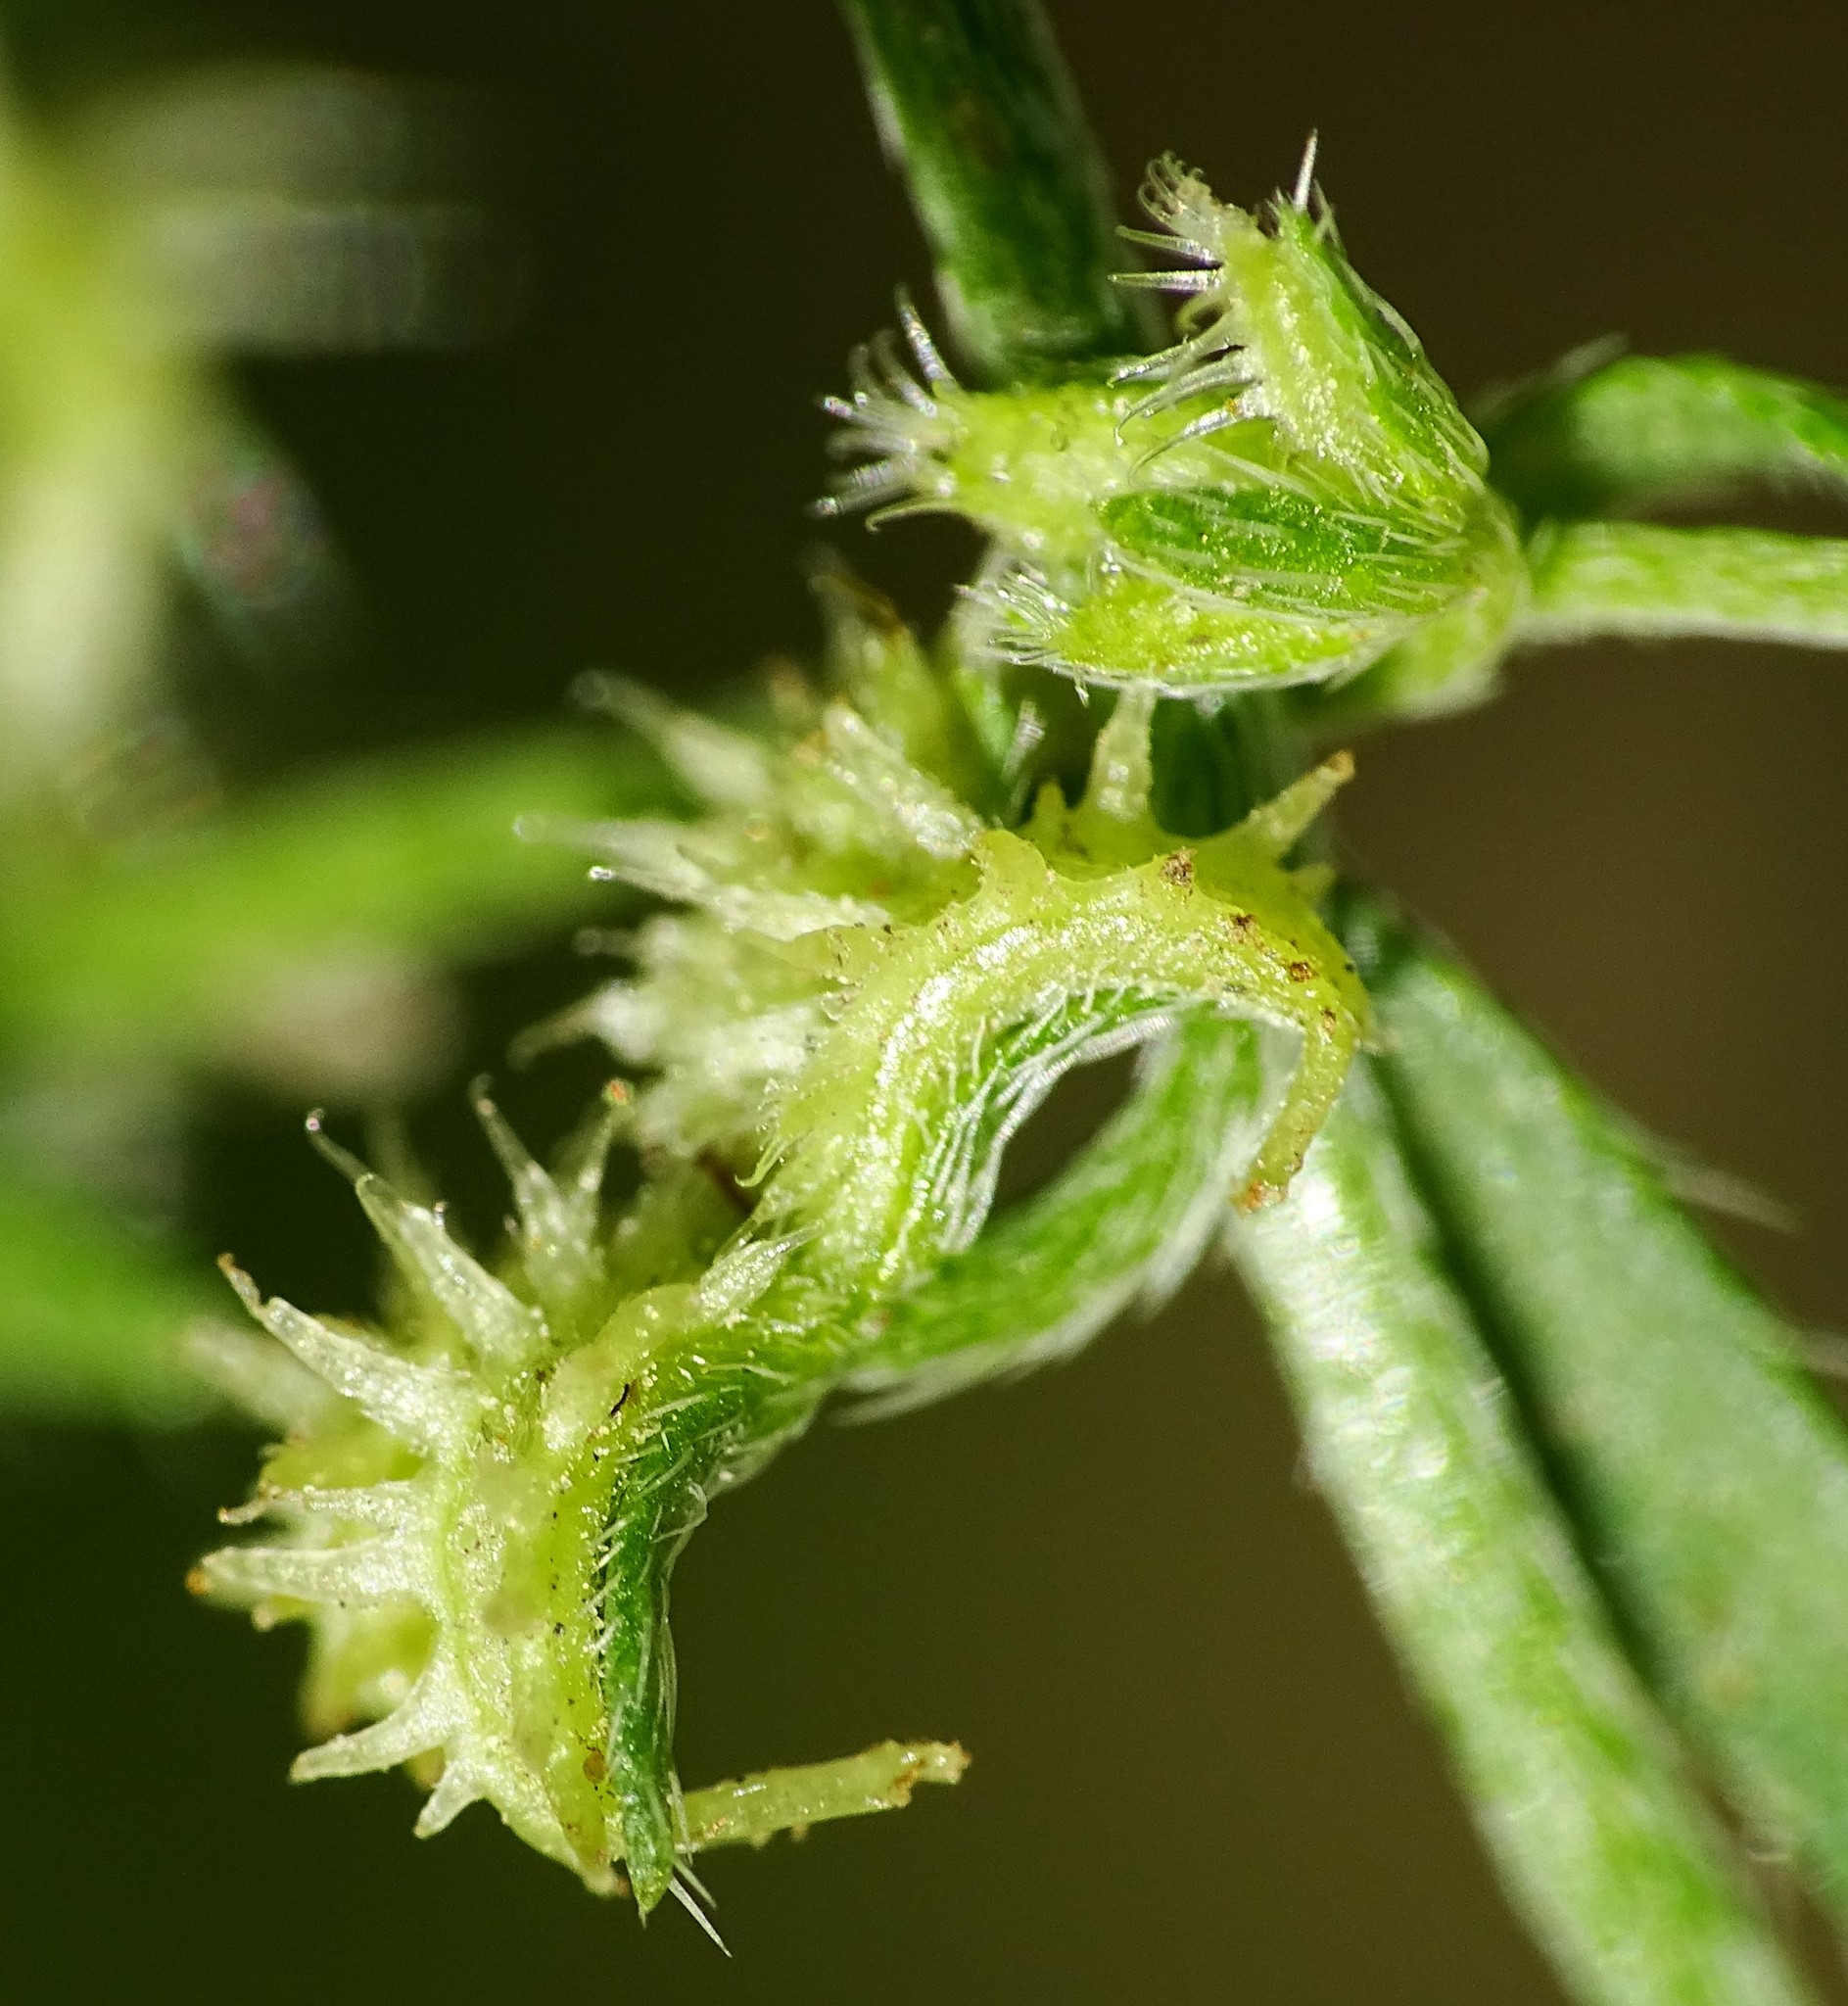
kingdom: Plantae
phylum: Tracheophyta
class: Magnoliopsida
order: Boraginales
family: Boraginaceae
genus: Pectocarya
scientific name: Pectocarya recurvata
